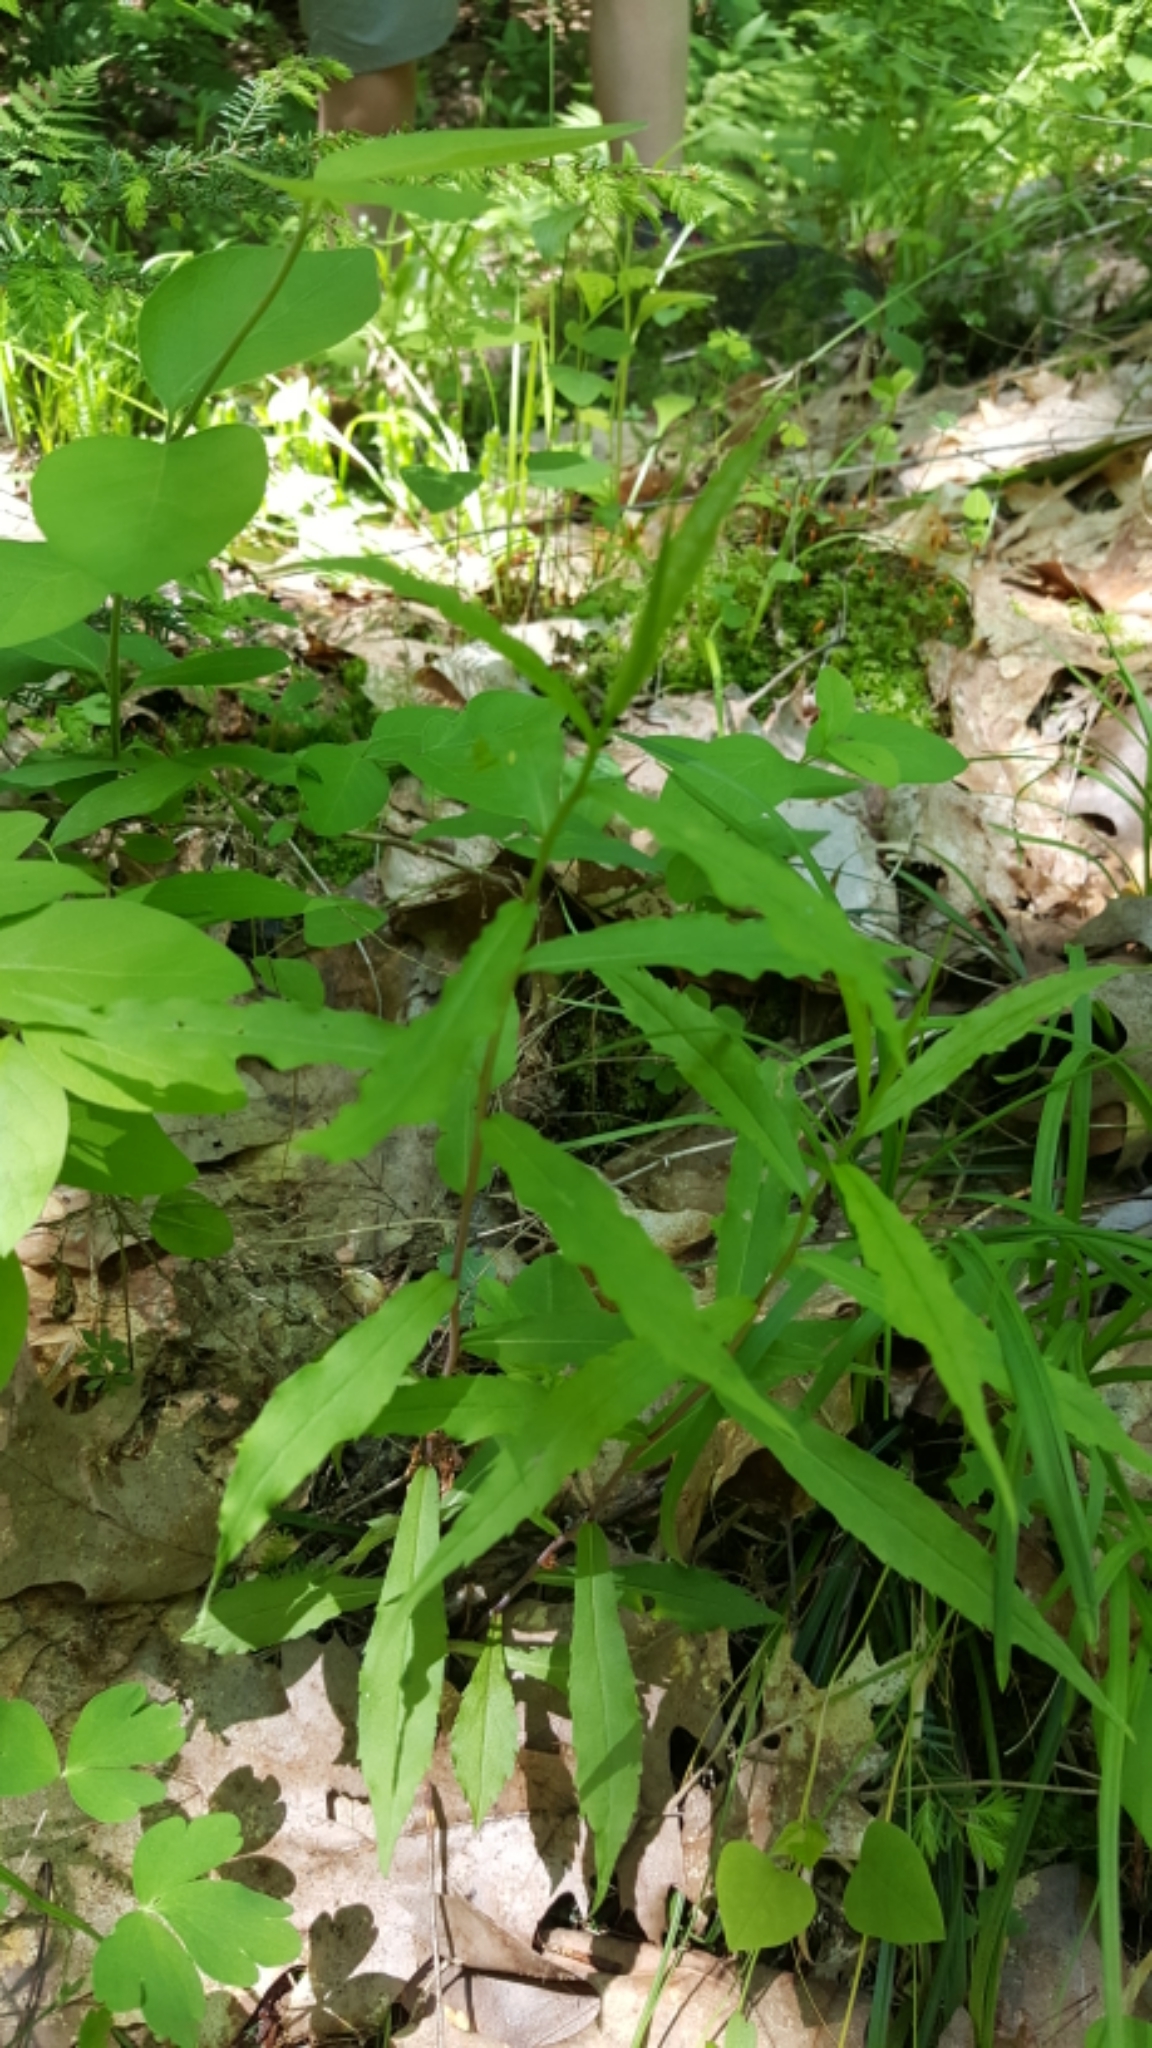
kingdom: Plantae
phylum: Tracheophyta
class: Magnoliopsida
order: Asterales
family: Asteraceae
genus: Solidago
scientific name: Solidago caesia
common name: Woodland goldenrod
